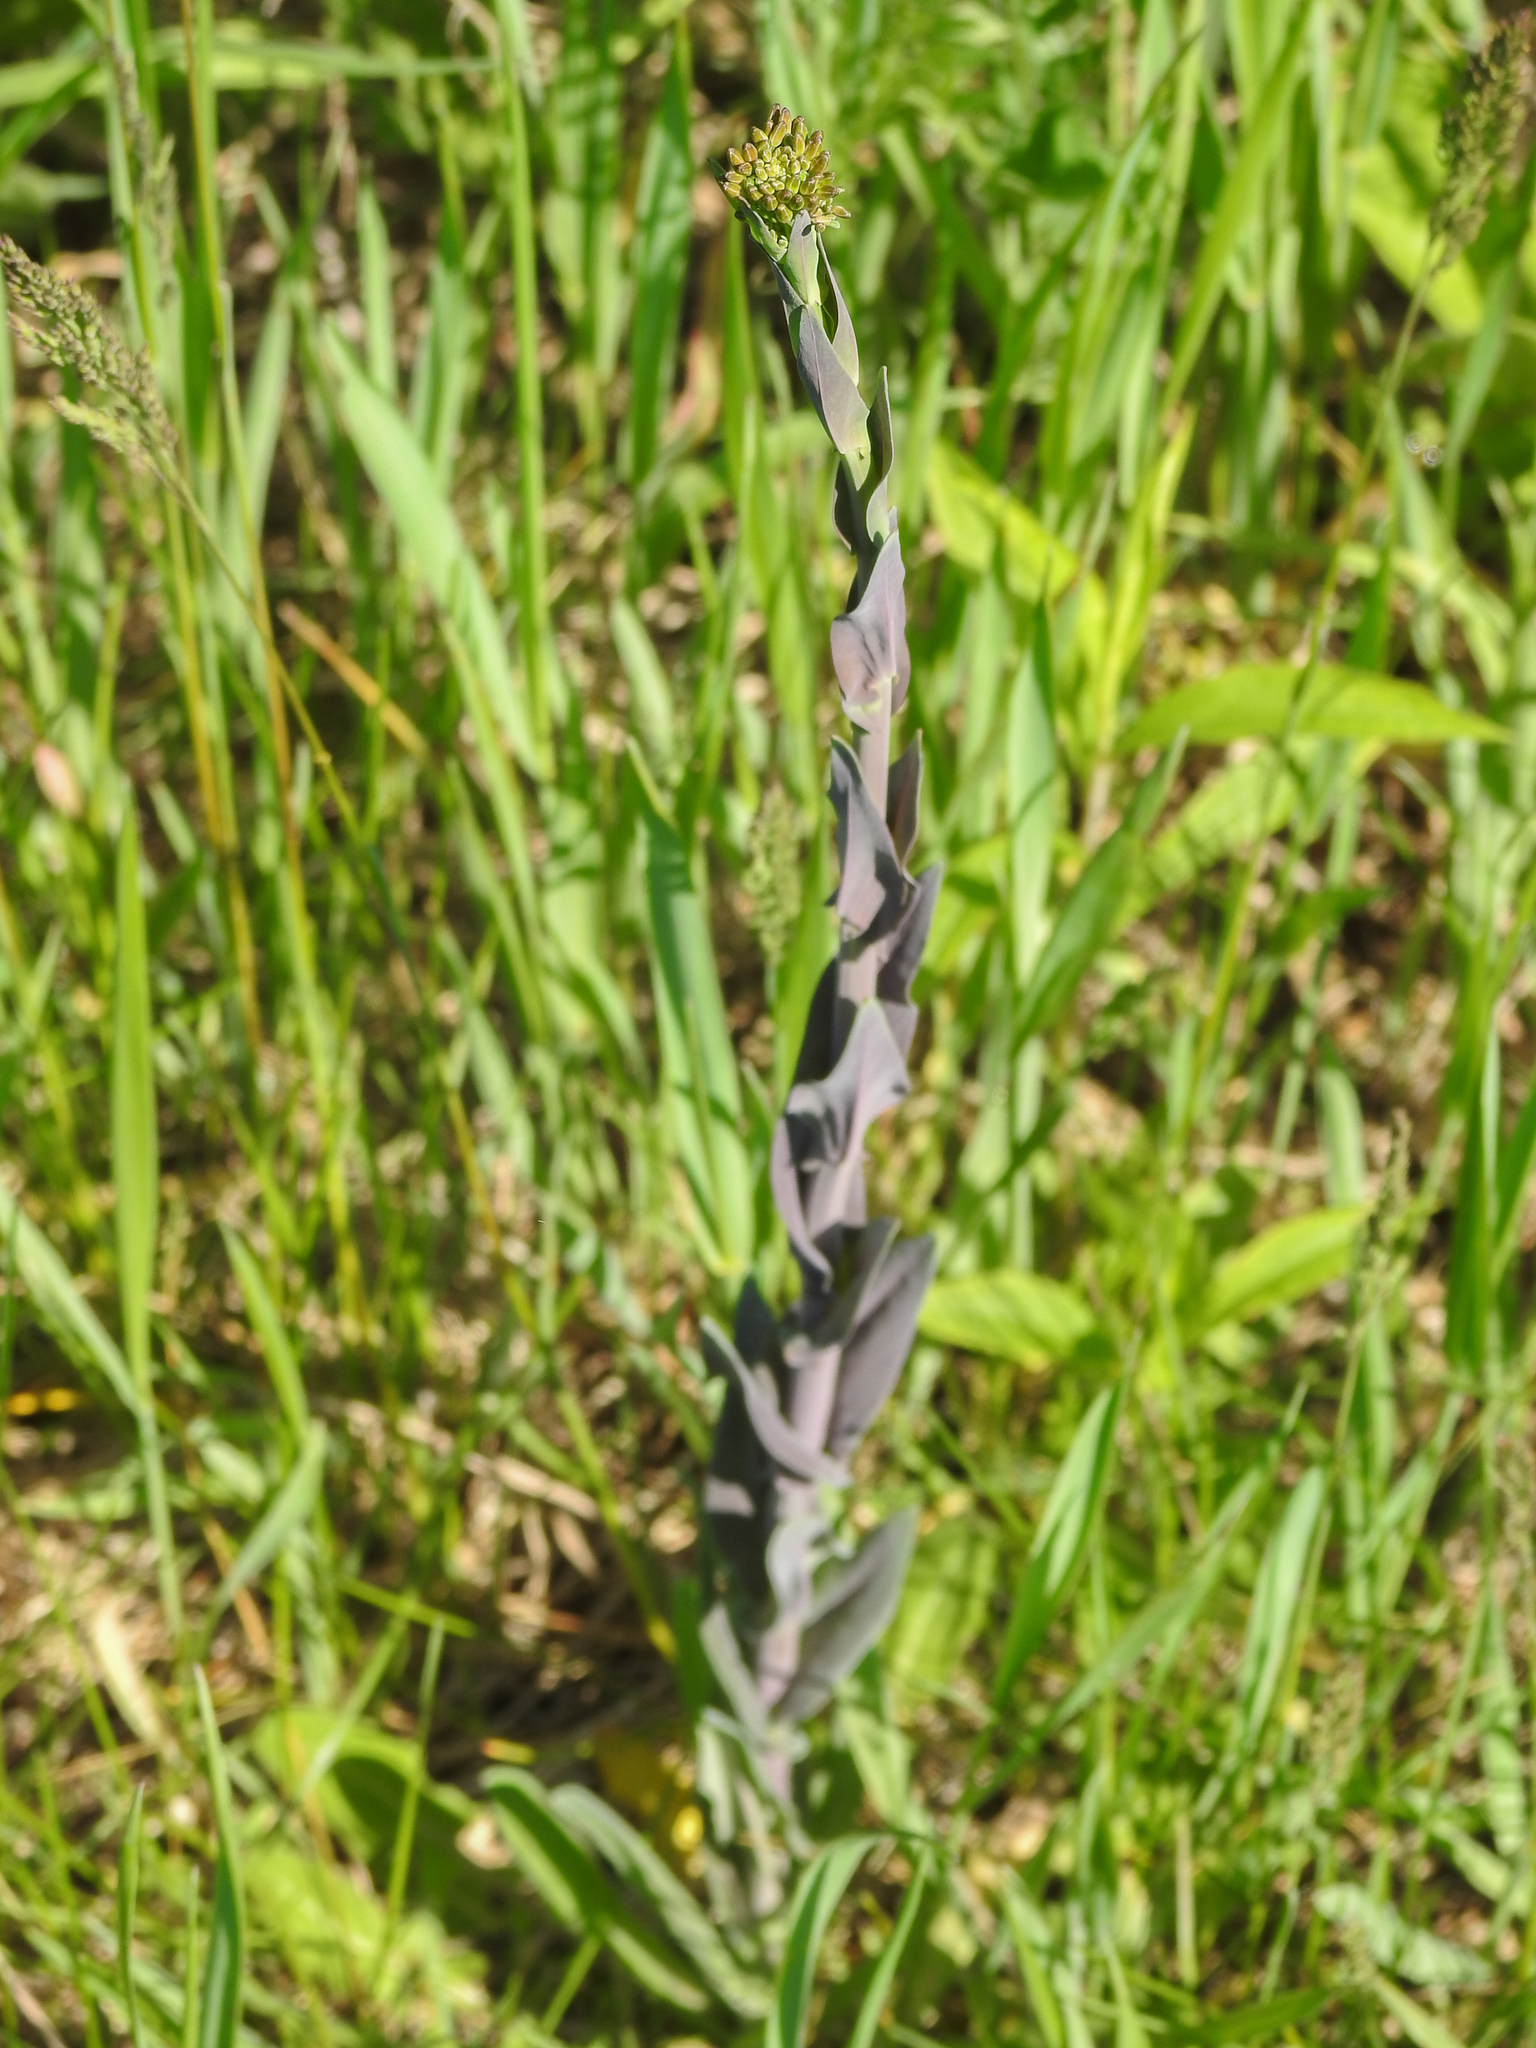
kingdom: Plantae
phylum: Tracheophyta
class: Magnoliopsida
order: Brassicales
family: Brassicaceae
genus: Turritis
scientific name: Turritis glabra
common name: Tower rockcress
